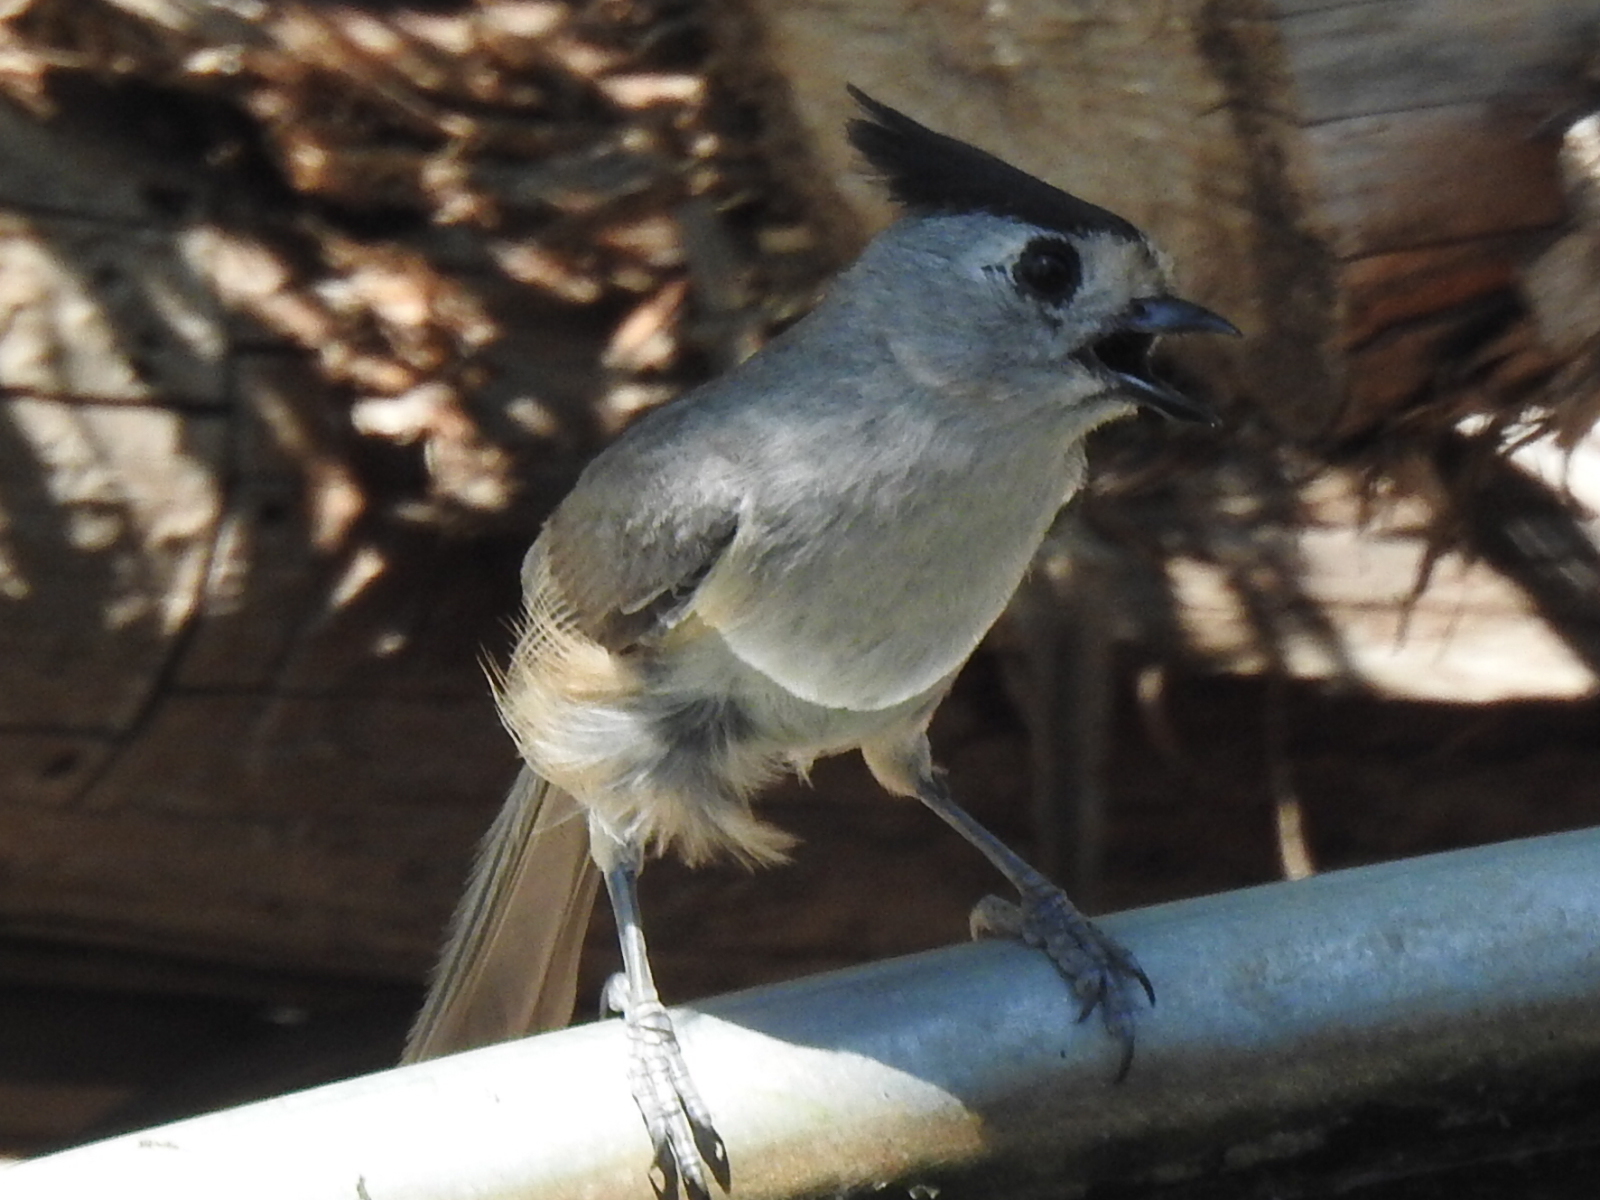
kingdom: Animalia
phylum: Chordata
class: Aves
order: Passeriformes
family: Paridae
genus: Baeolophus
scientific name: Baeolophus atricristatus
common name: Black-crested titmouse
